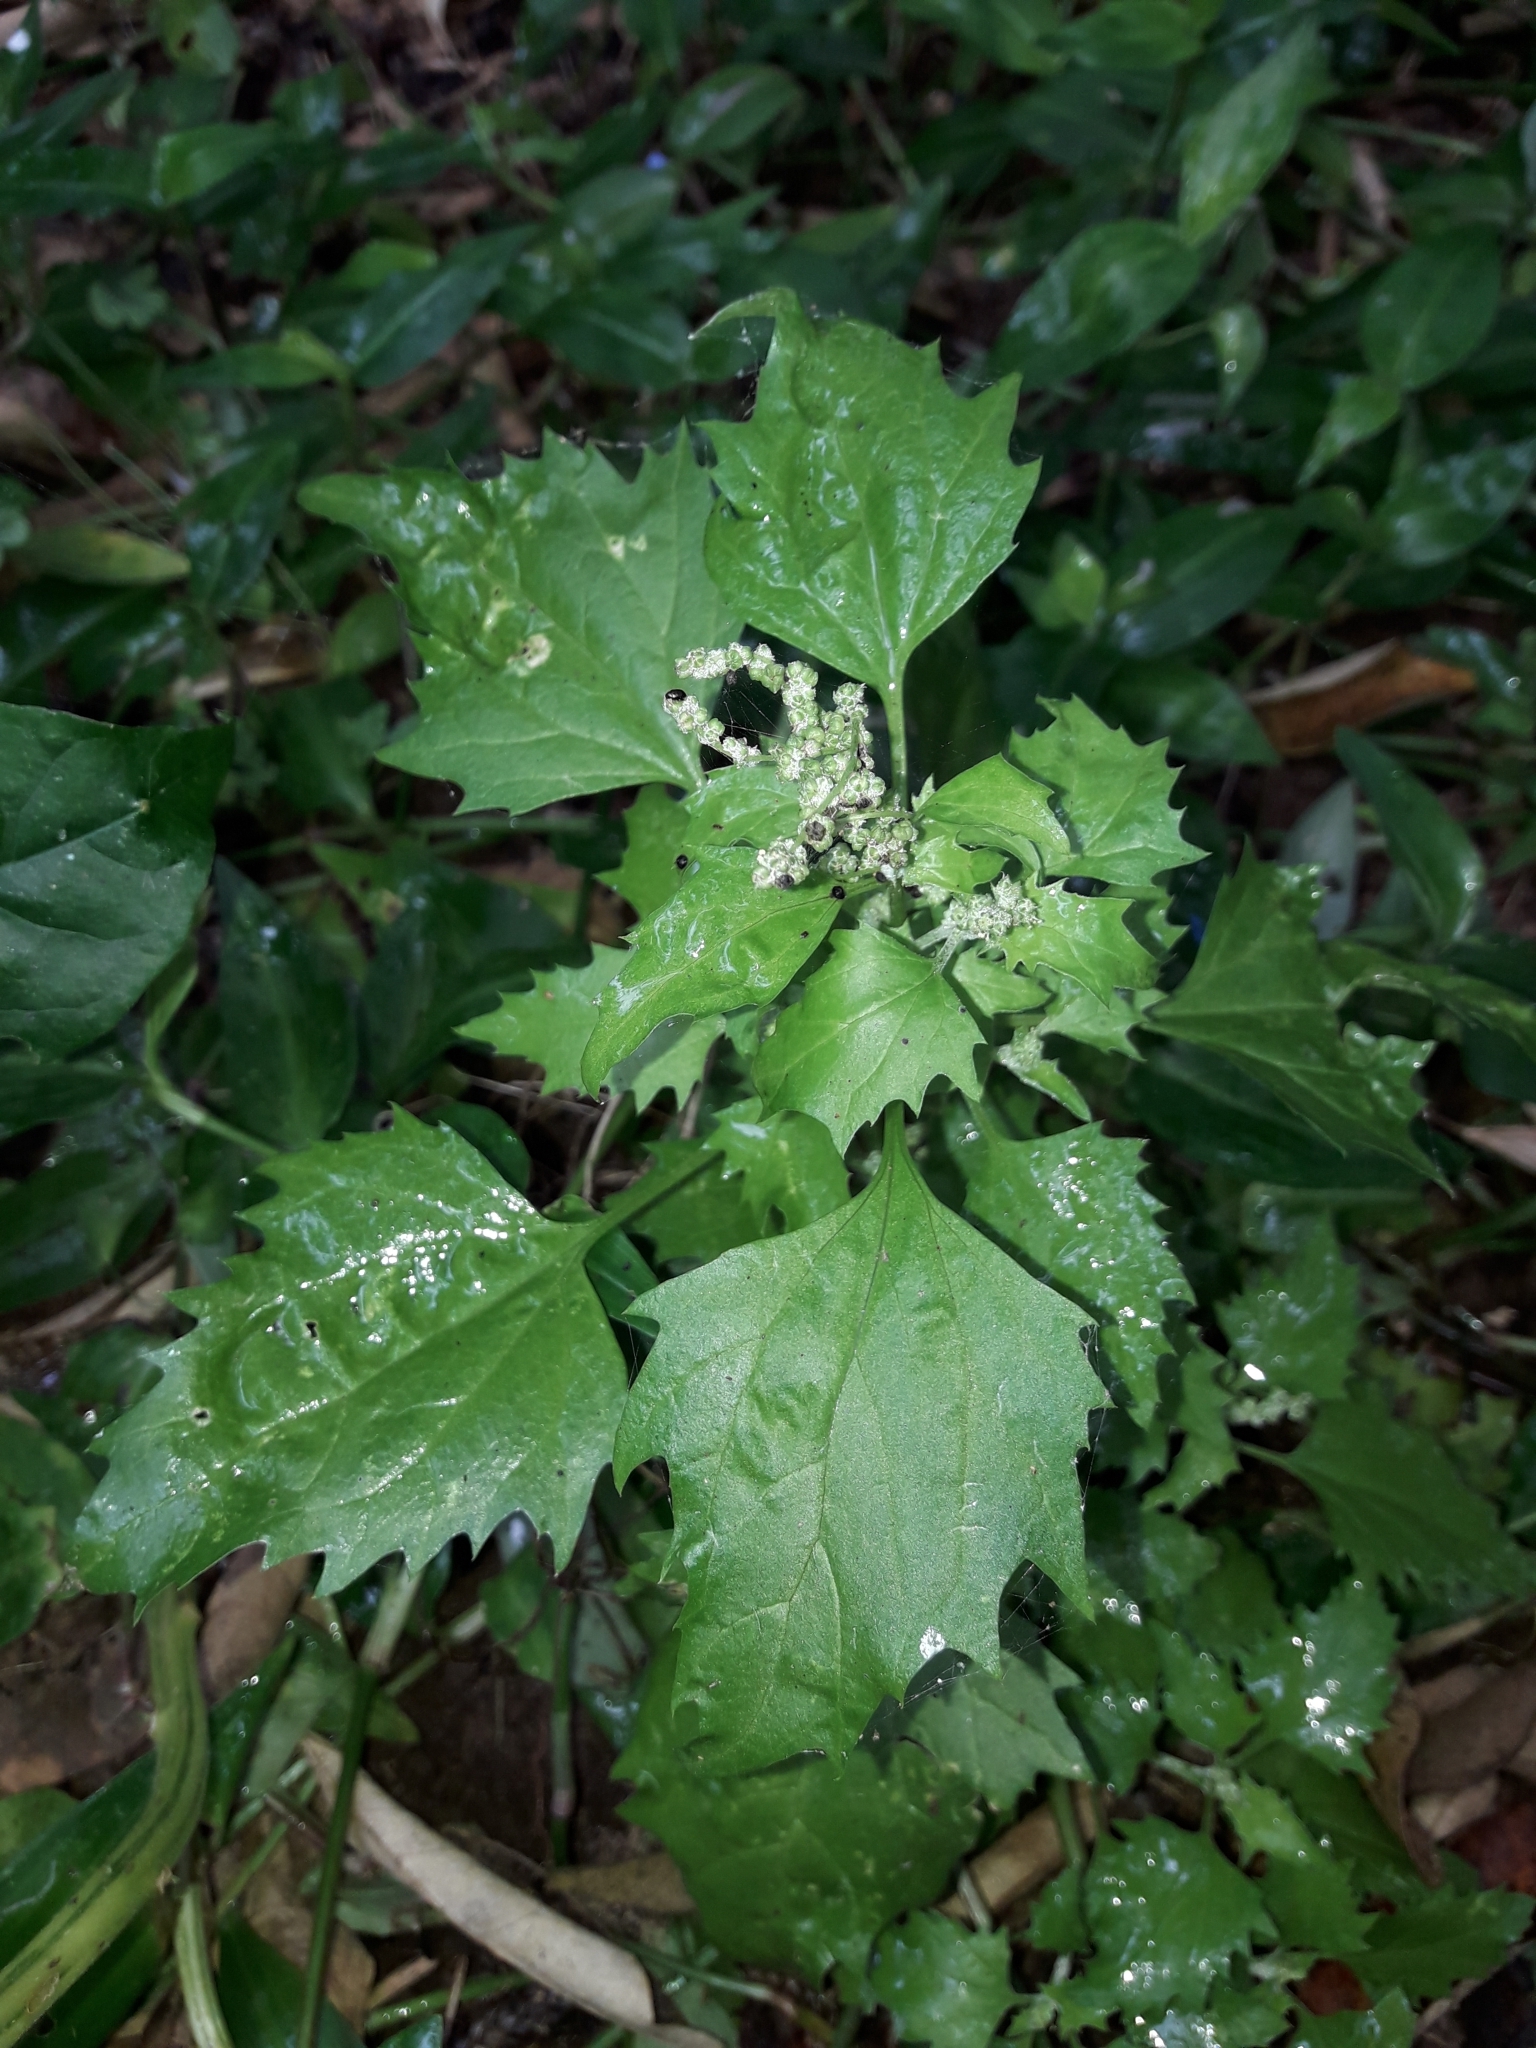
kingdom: Plantae
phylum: Tracheophyta
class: Magnoliopsida
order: Caryophyllales
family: Amaranthaceae
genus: Chenopodiastrum
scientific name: Chenopodiastrum murale
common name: Sowbane
